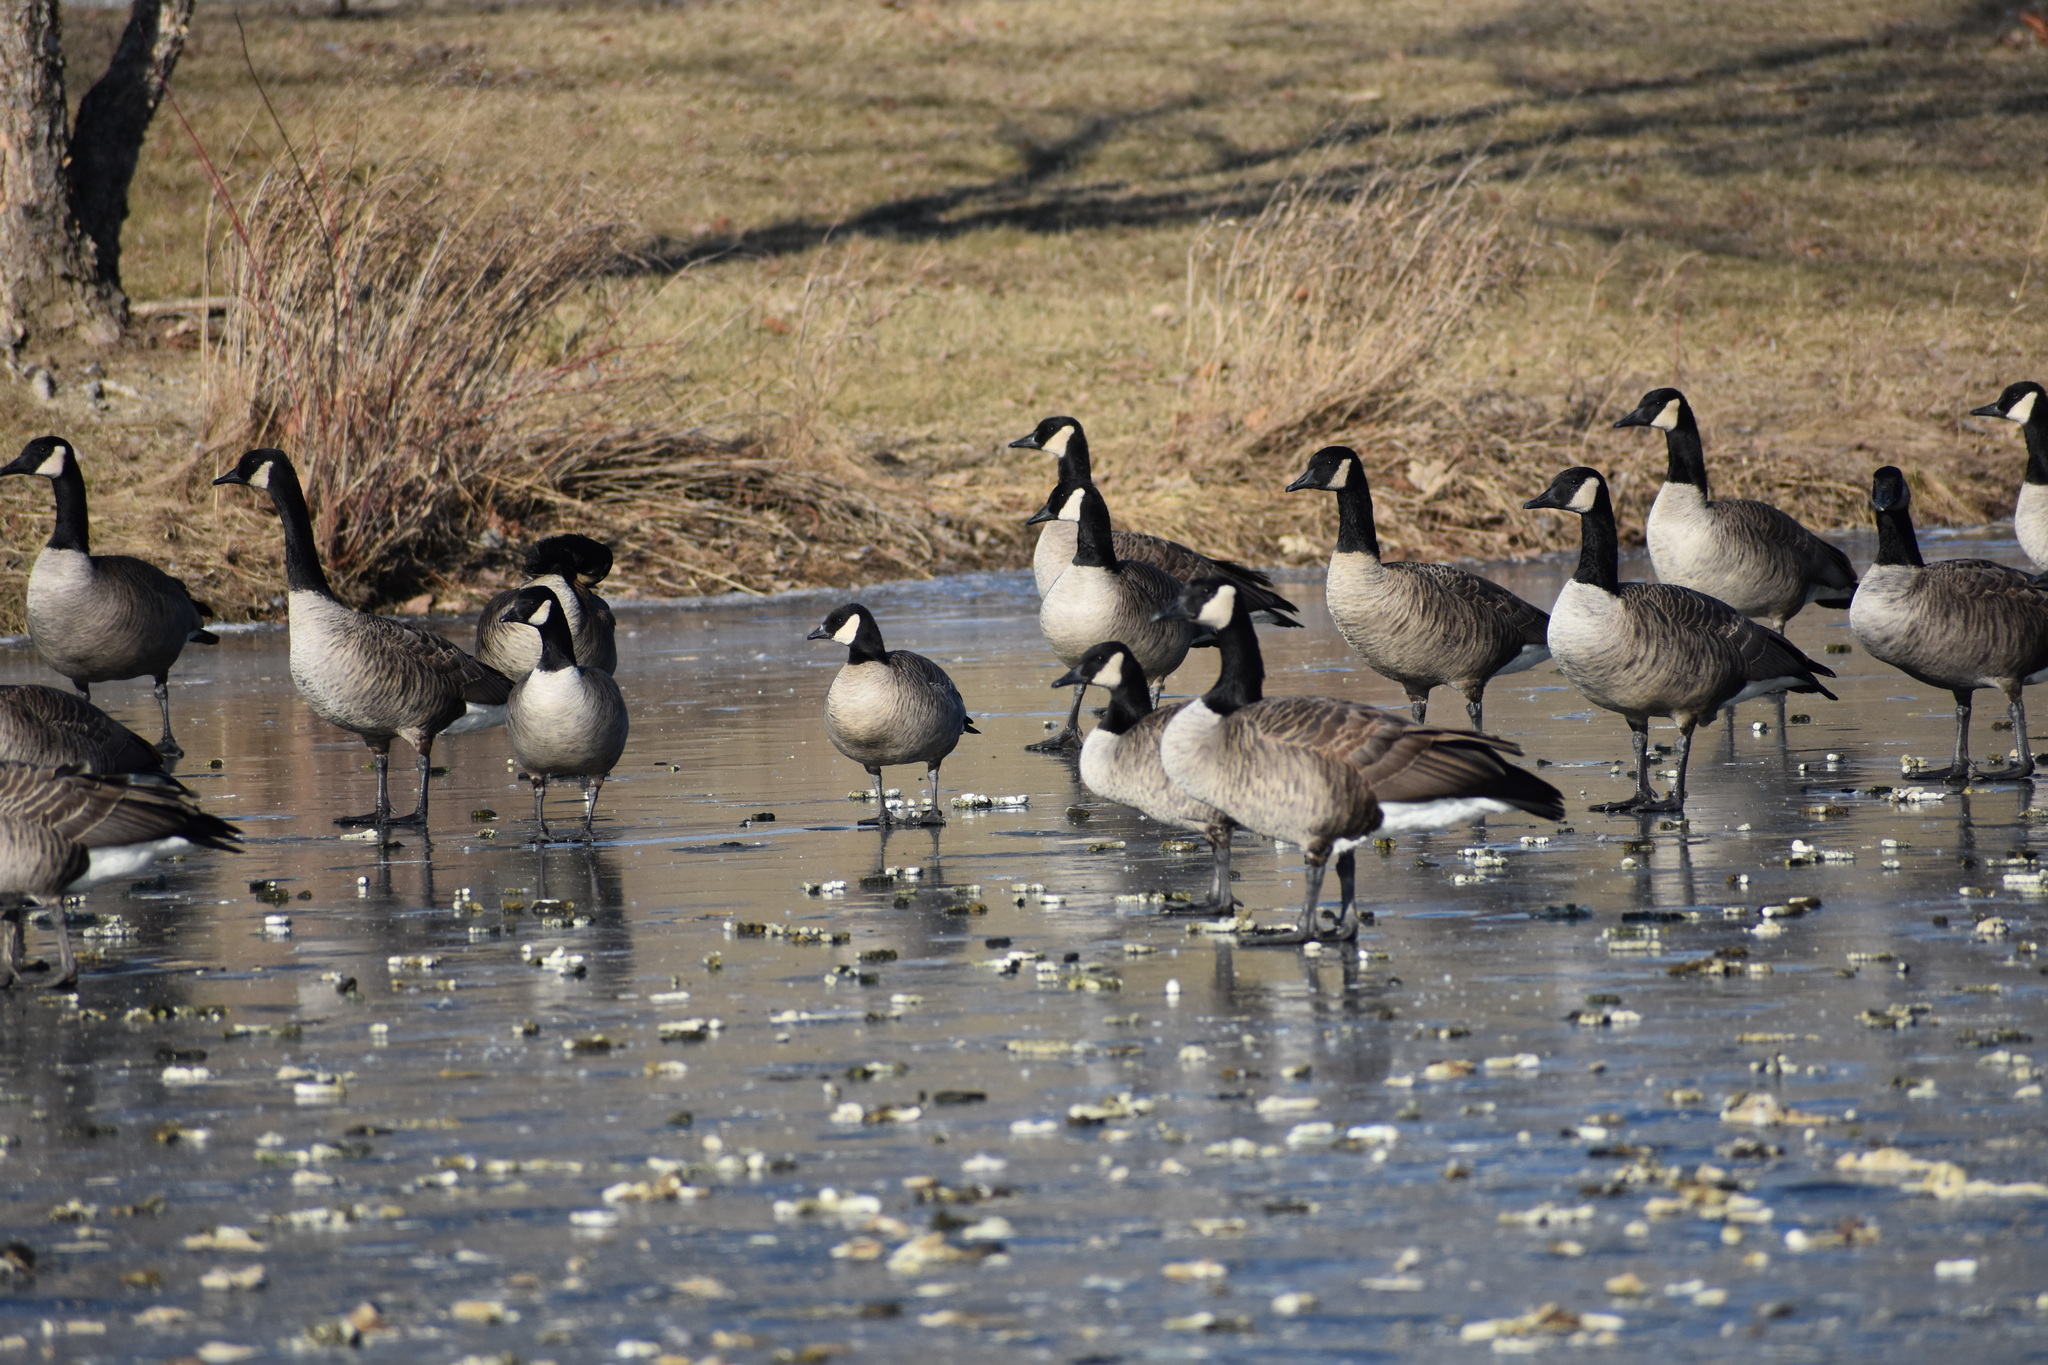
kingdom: Animalia
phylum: Chordata
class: Aves
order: Anseriformes
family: Anatidae
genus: Branta
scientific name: Branta hutchinsii
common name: Cackling goose
